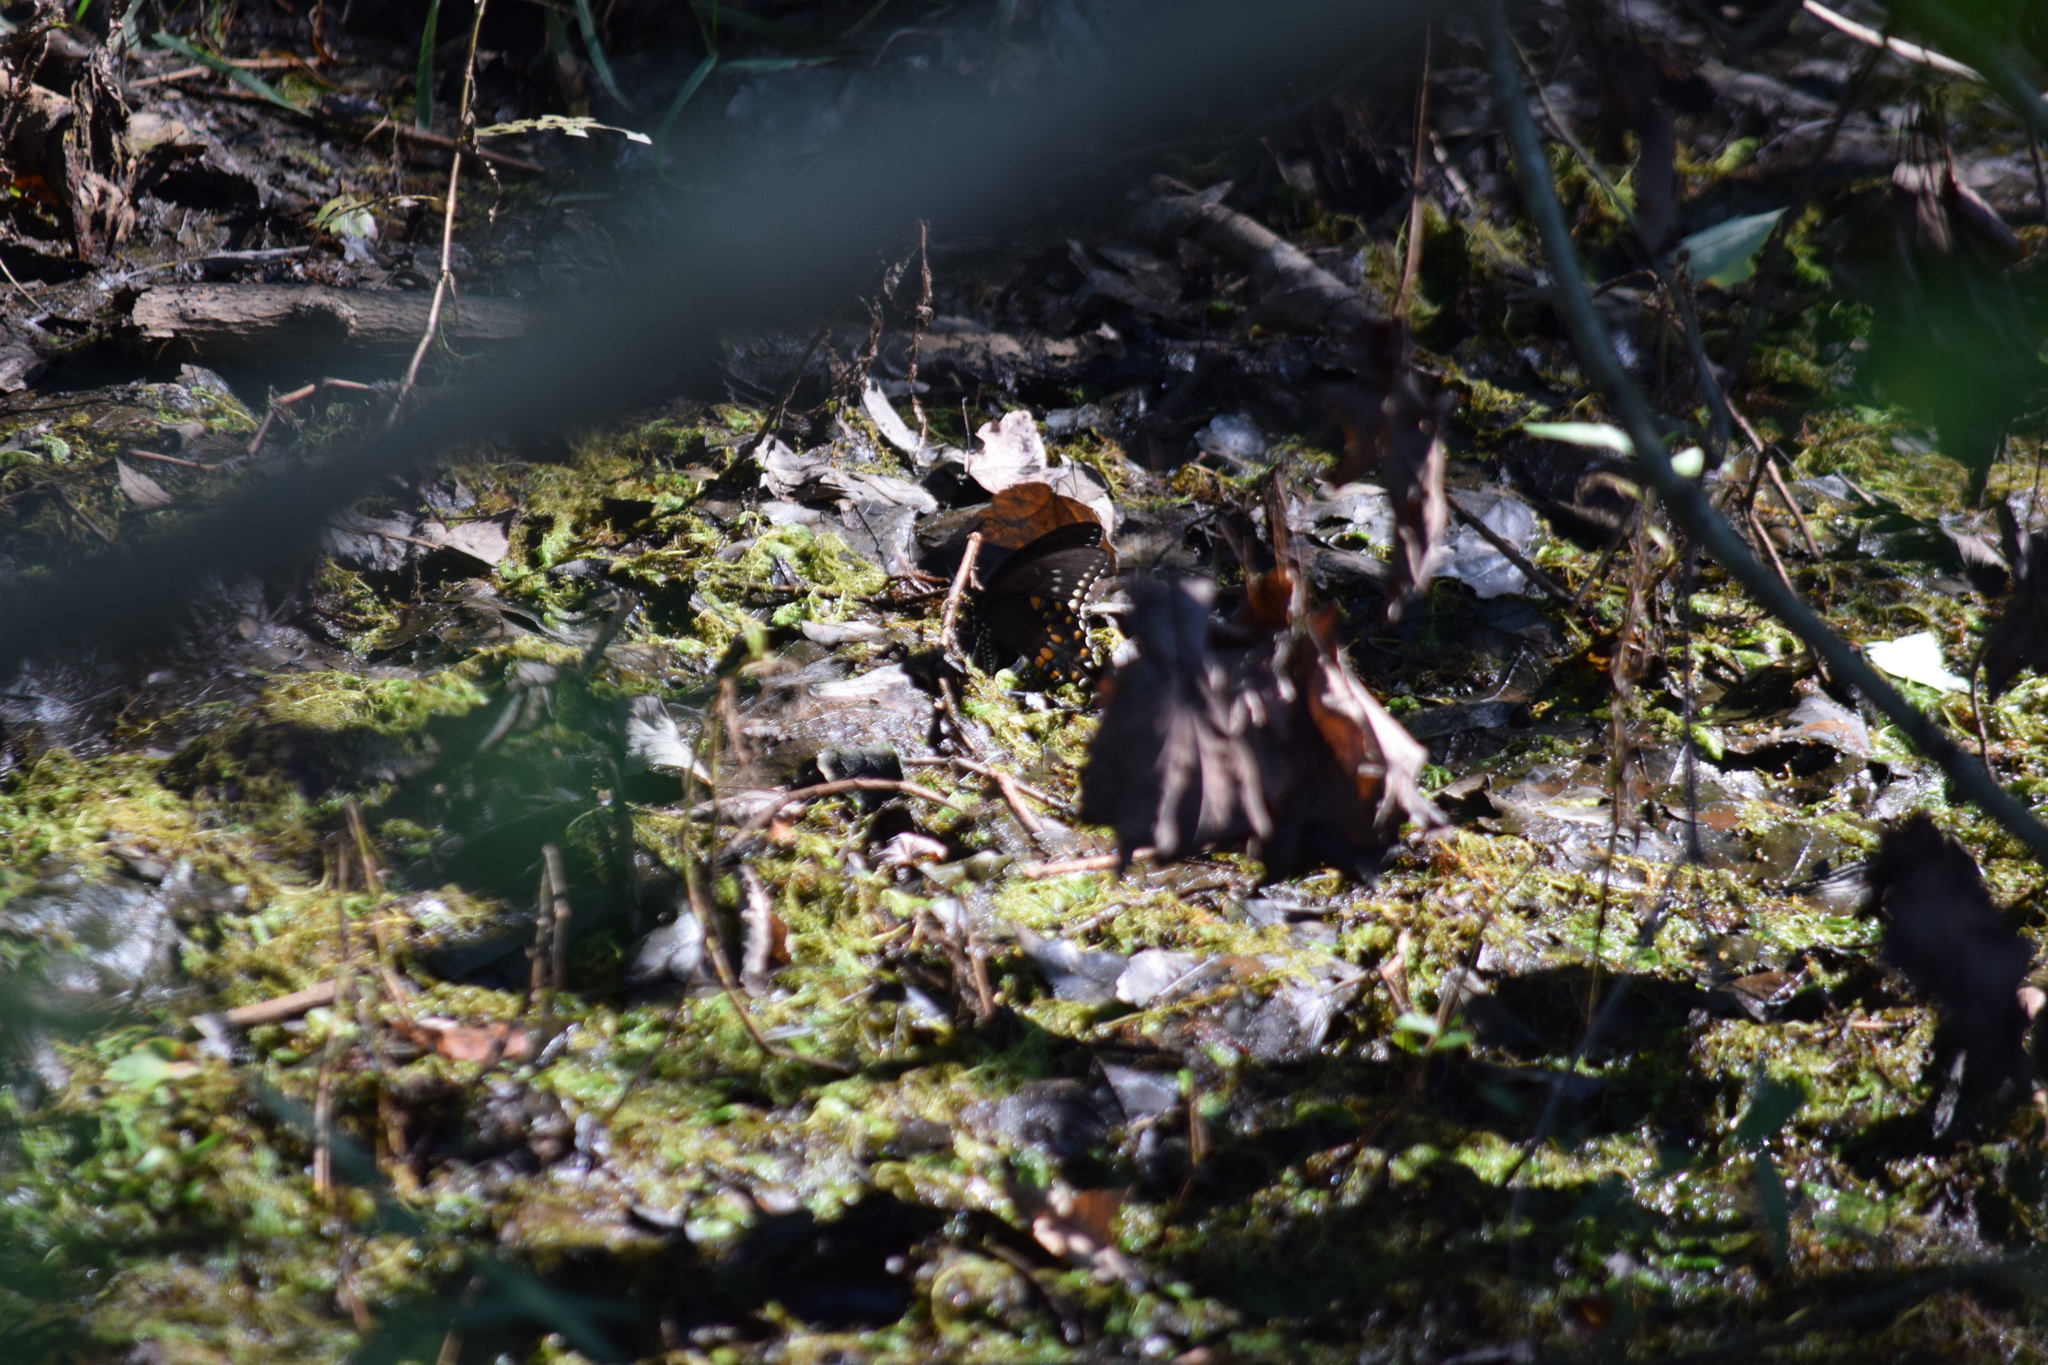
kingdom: Animalia
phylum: Arthropoda
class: Insecta
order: Lepidoptera
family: Papilionidae
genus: Papilio
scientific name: Papilio troilus
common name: Spicebush swallowtail
